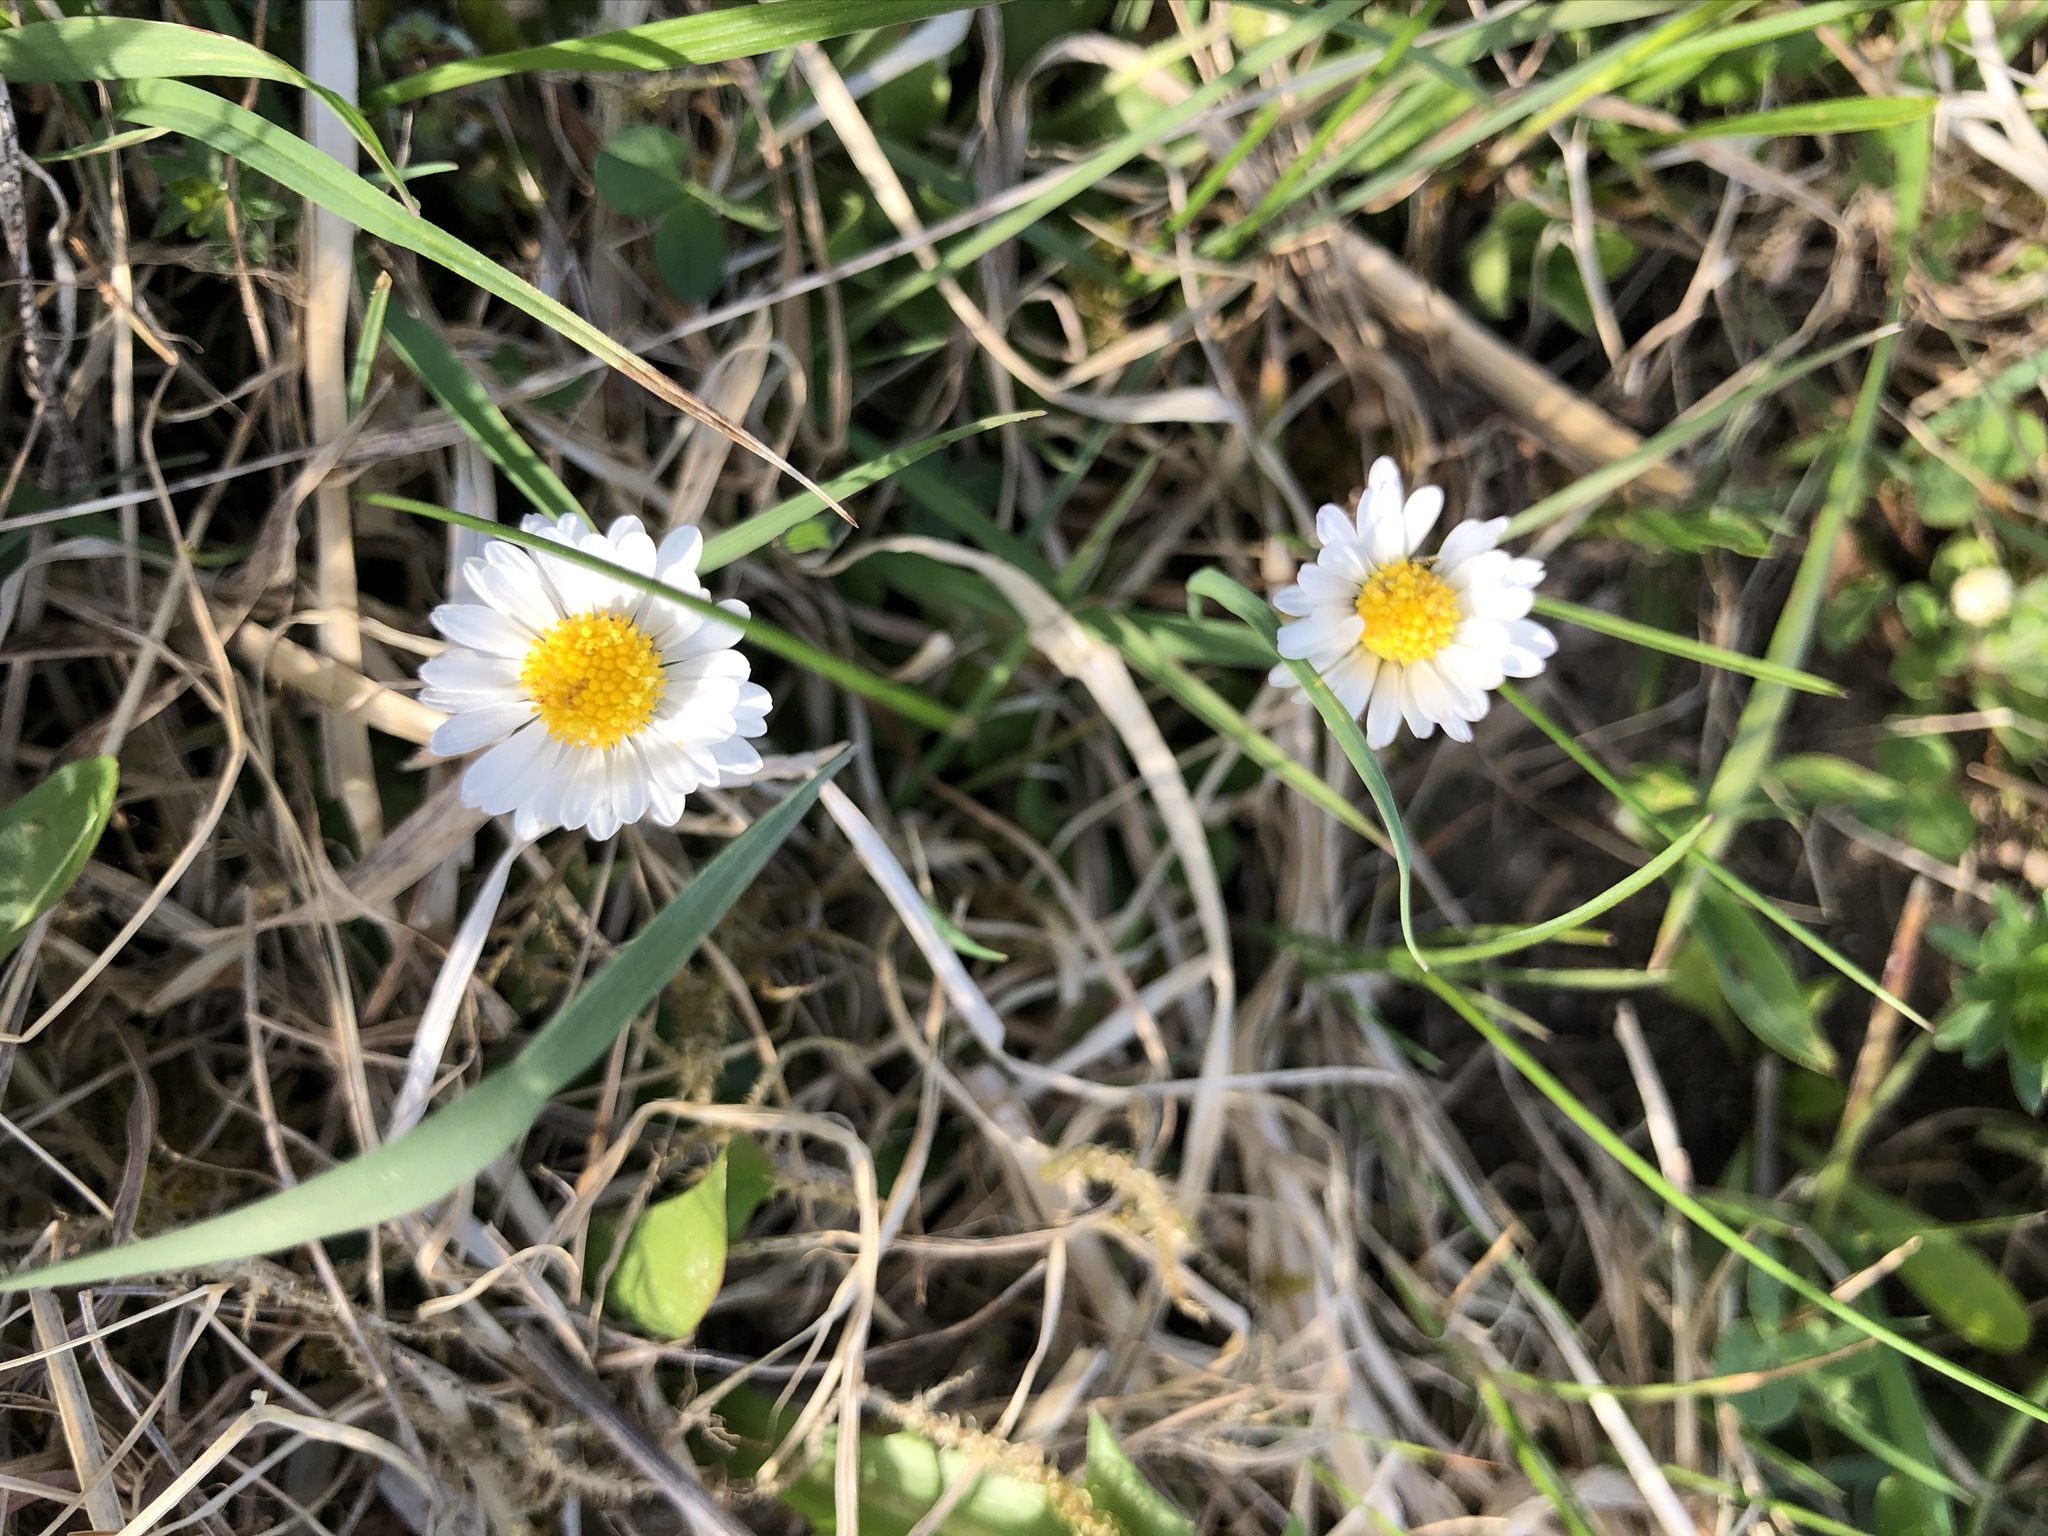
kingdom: Plantae
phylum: Tracheophyta
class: Magnoliopsida
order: Asterales
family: Asteraceae
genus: Bellis
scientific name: Bellis perennis
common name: Lawndaisy
